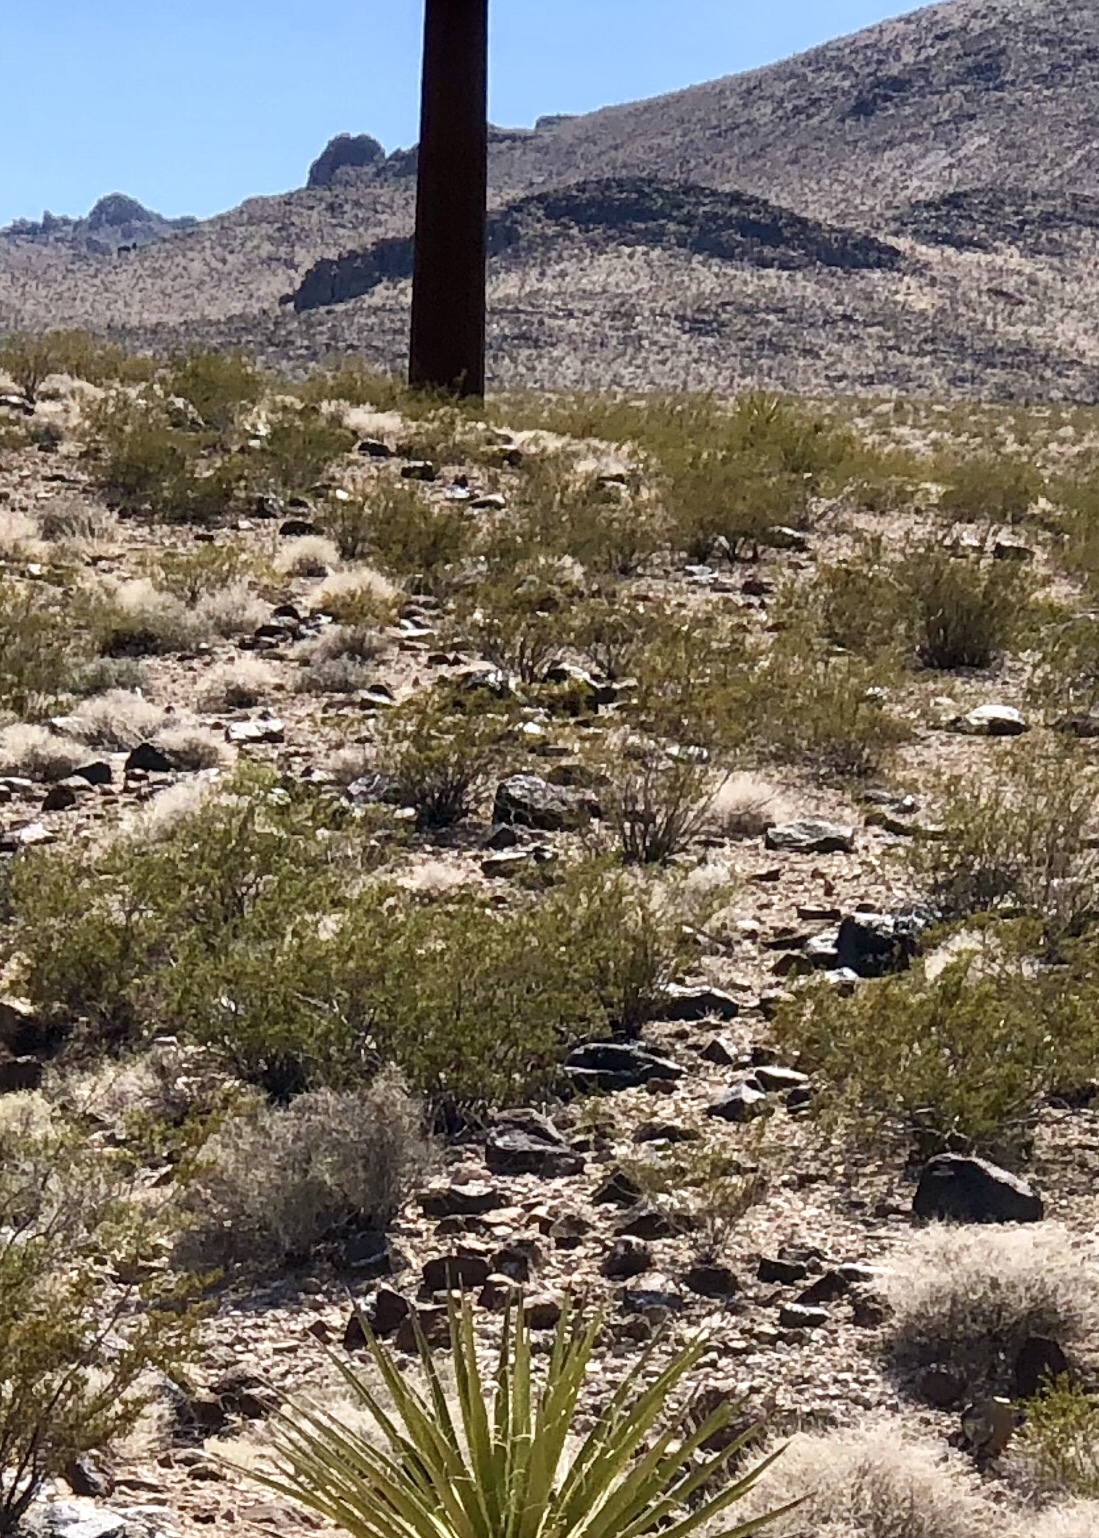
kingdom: Plantae
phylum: Tracheophyta
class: Magnoliopsida
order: Zygophyllales
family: Zygophyllaceae
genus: Larrea
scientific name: Larrea tridentata
